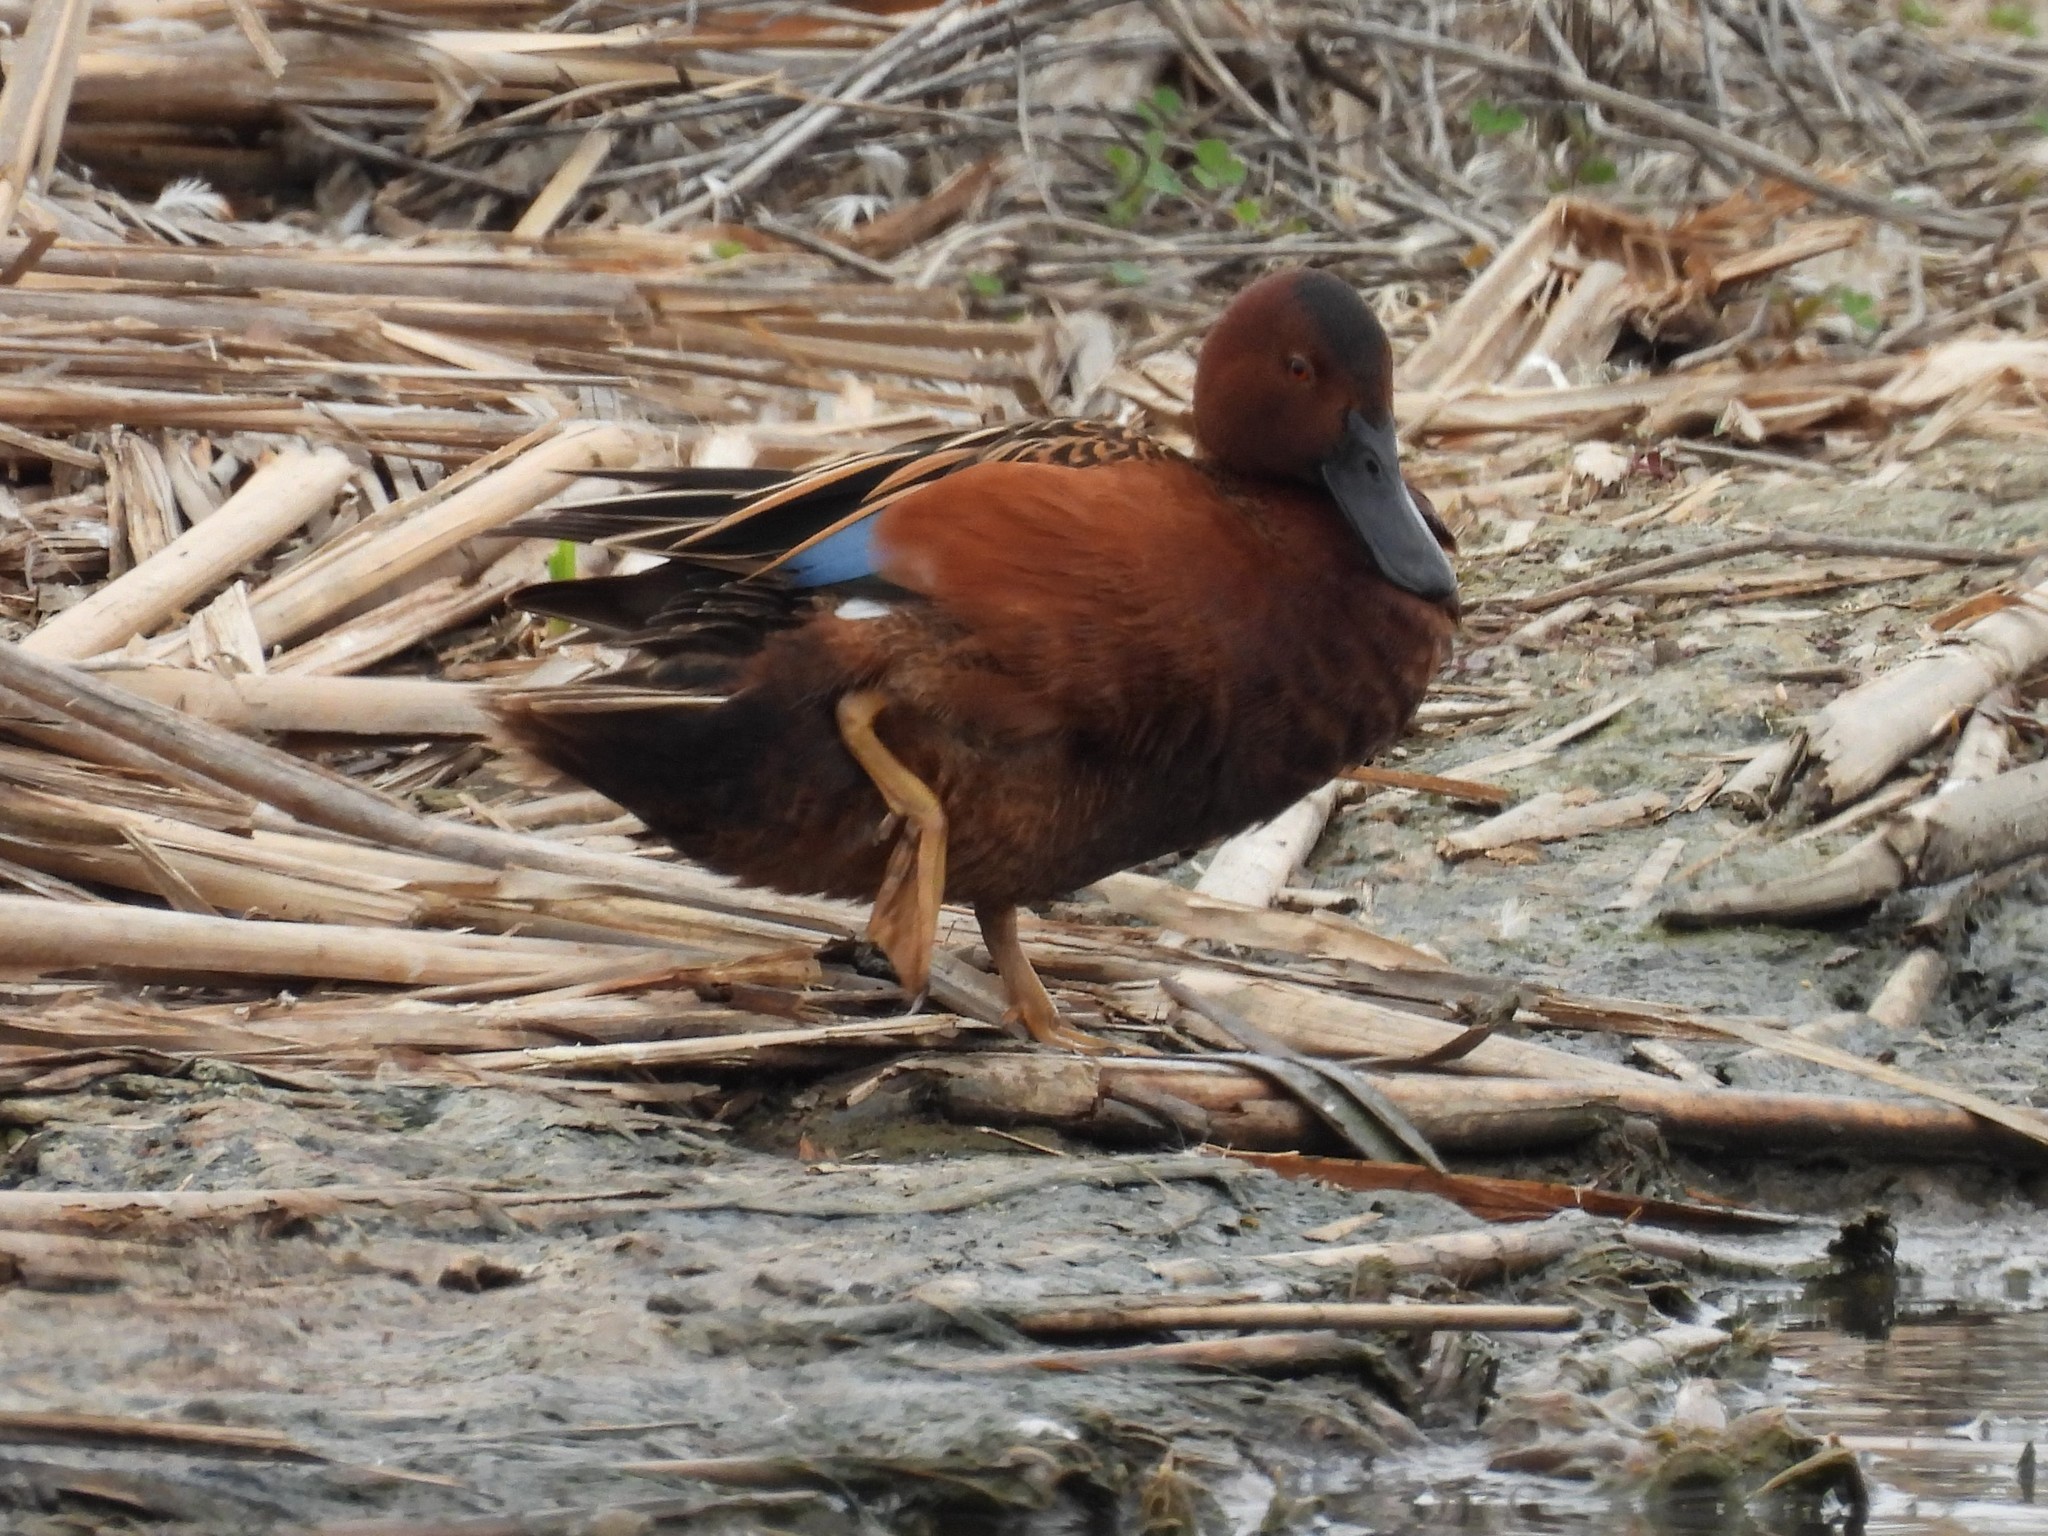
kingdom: Animalia
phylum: Chordata
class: Aves
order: Anseriformes
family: Anatidae
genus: Spatula
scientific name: Spatula cyanoptera
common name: Cinnamon teal
